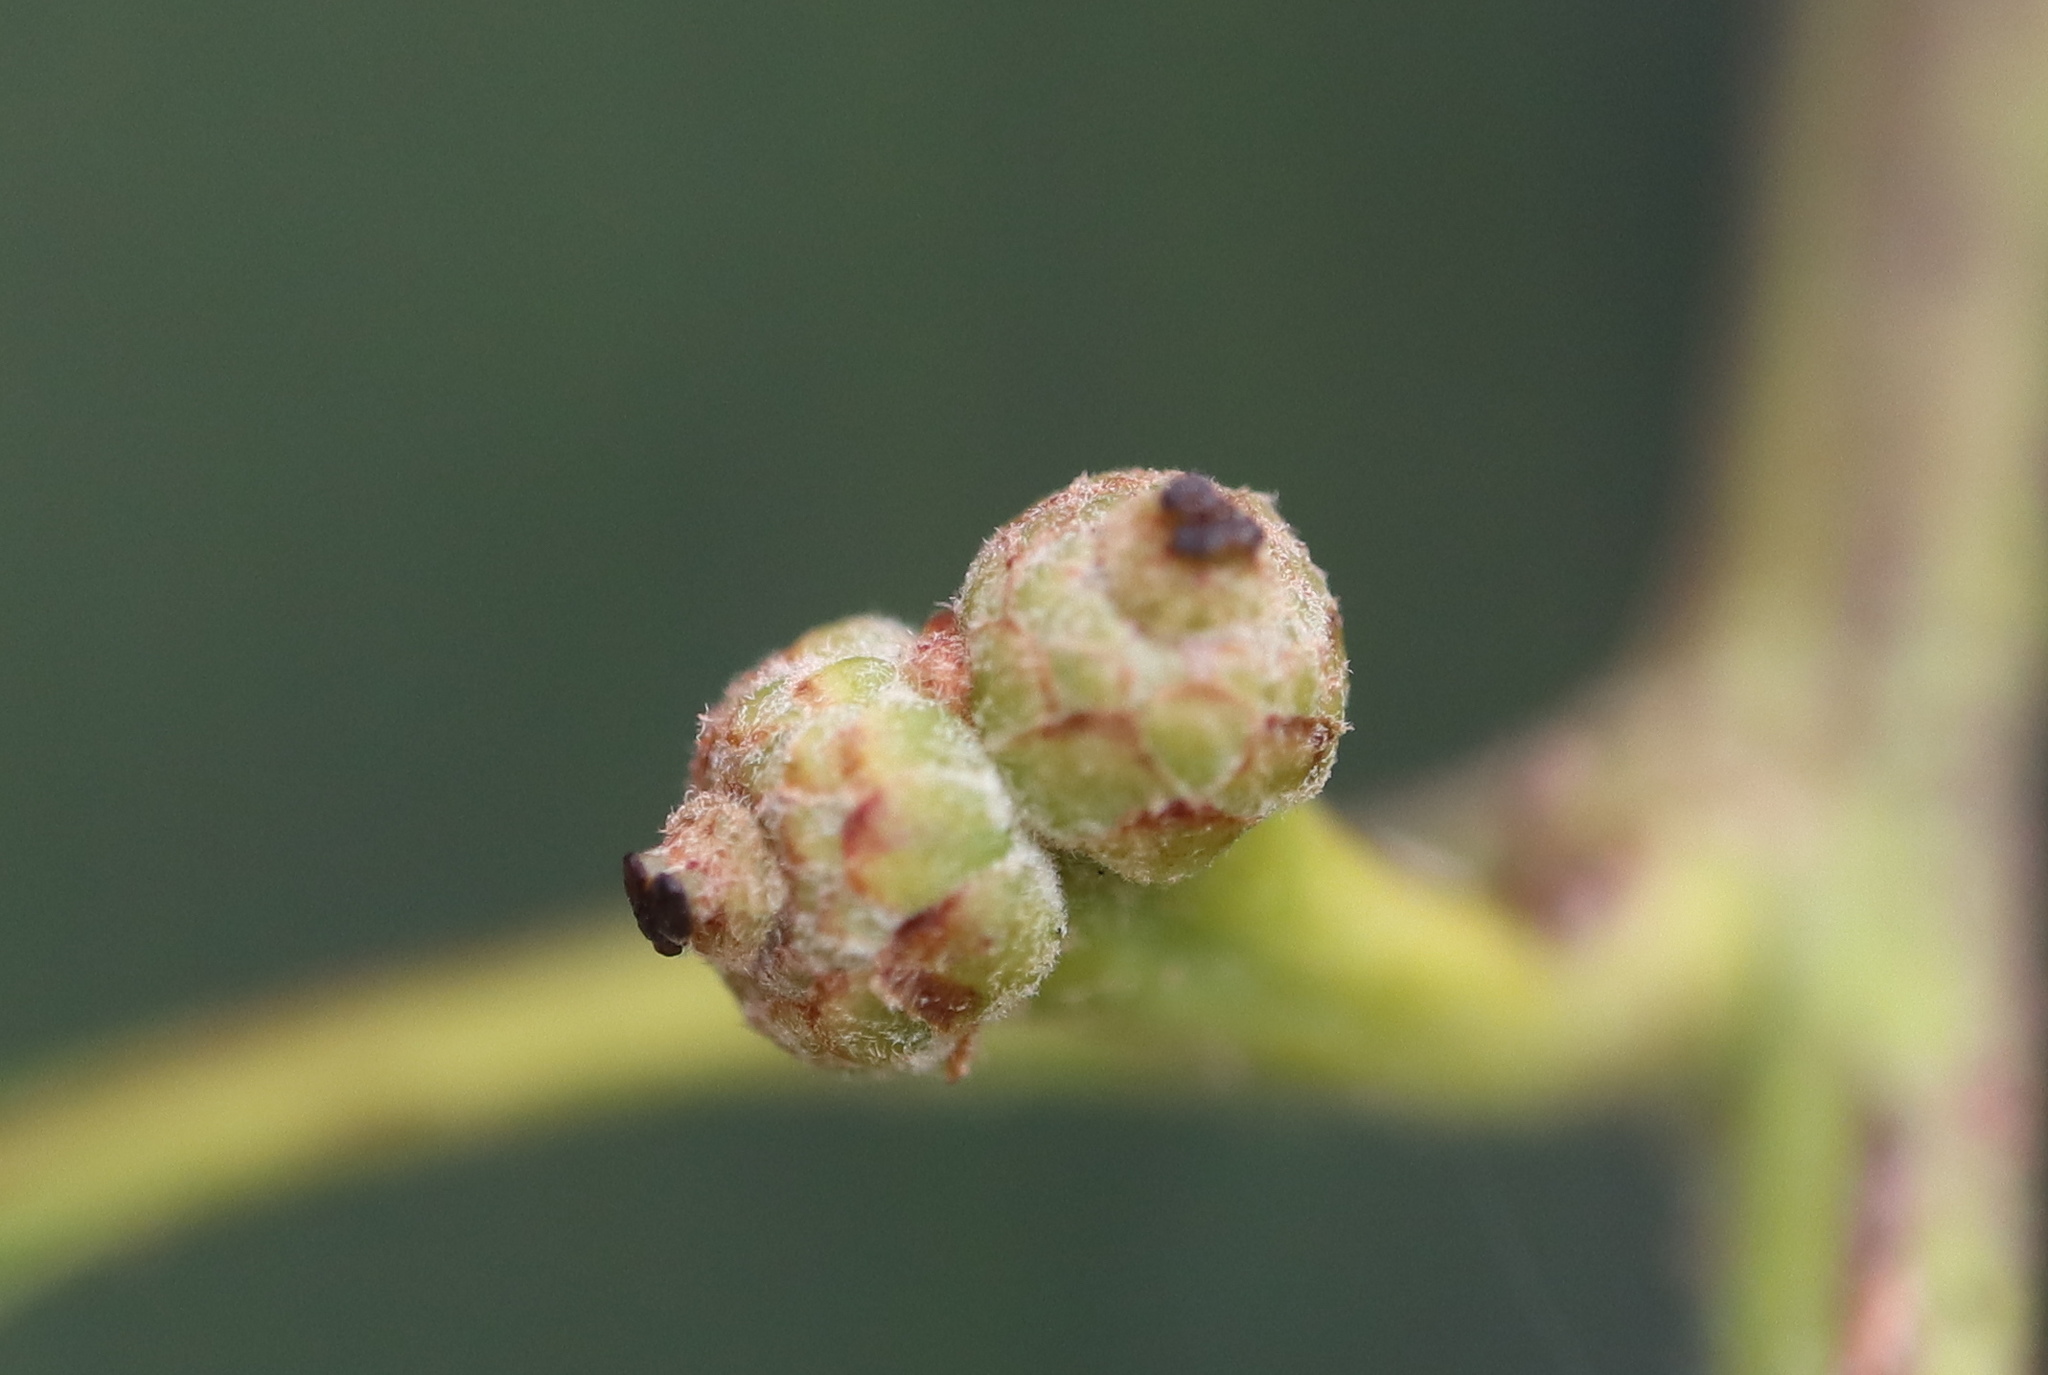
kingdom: Plantae
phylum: Tracheophyta
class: Magnoliopsida
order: Fagales
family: Fagaceae
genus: Quercus
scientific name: Quercus alba
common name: White oak
